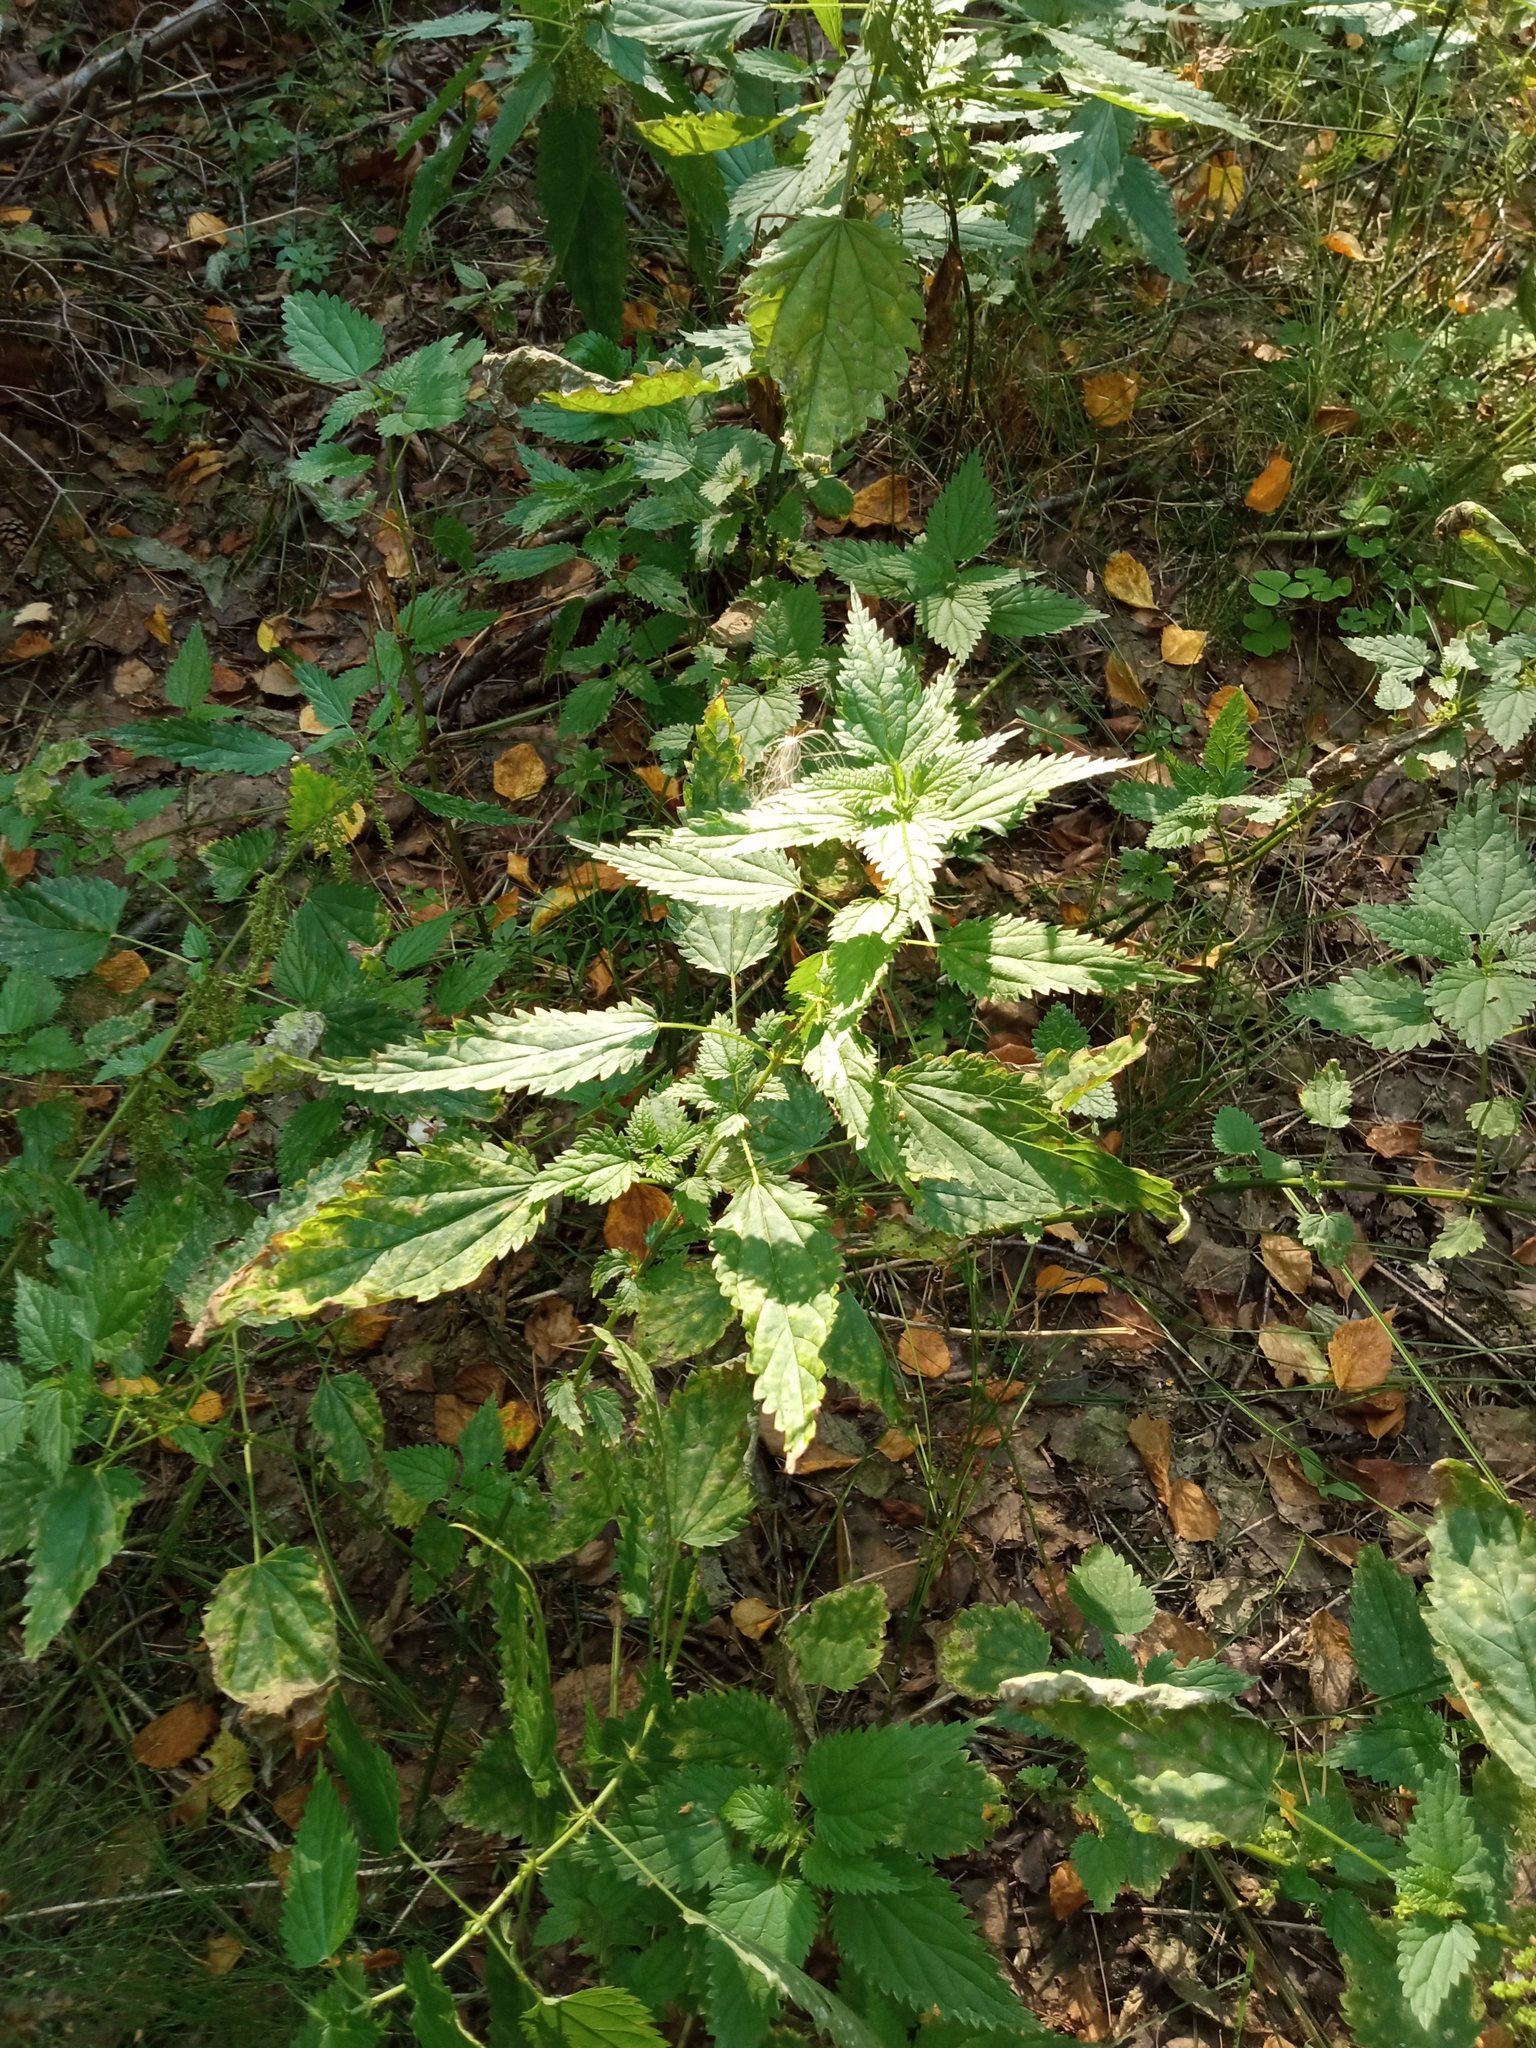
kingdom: Plantae
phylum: Tracheophyta
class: Magnoliopsida
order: Rosales
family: Urticaceae
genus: Urtica
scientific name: Urtica dioica
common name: Common nettle
